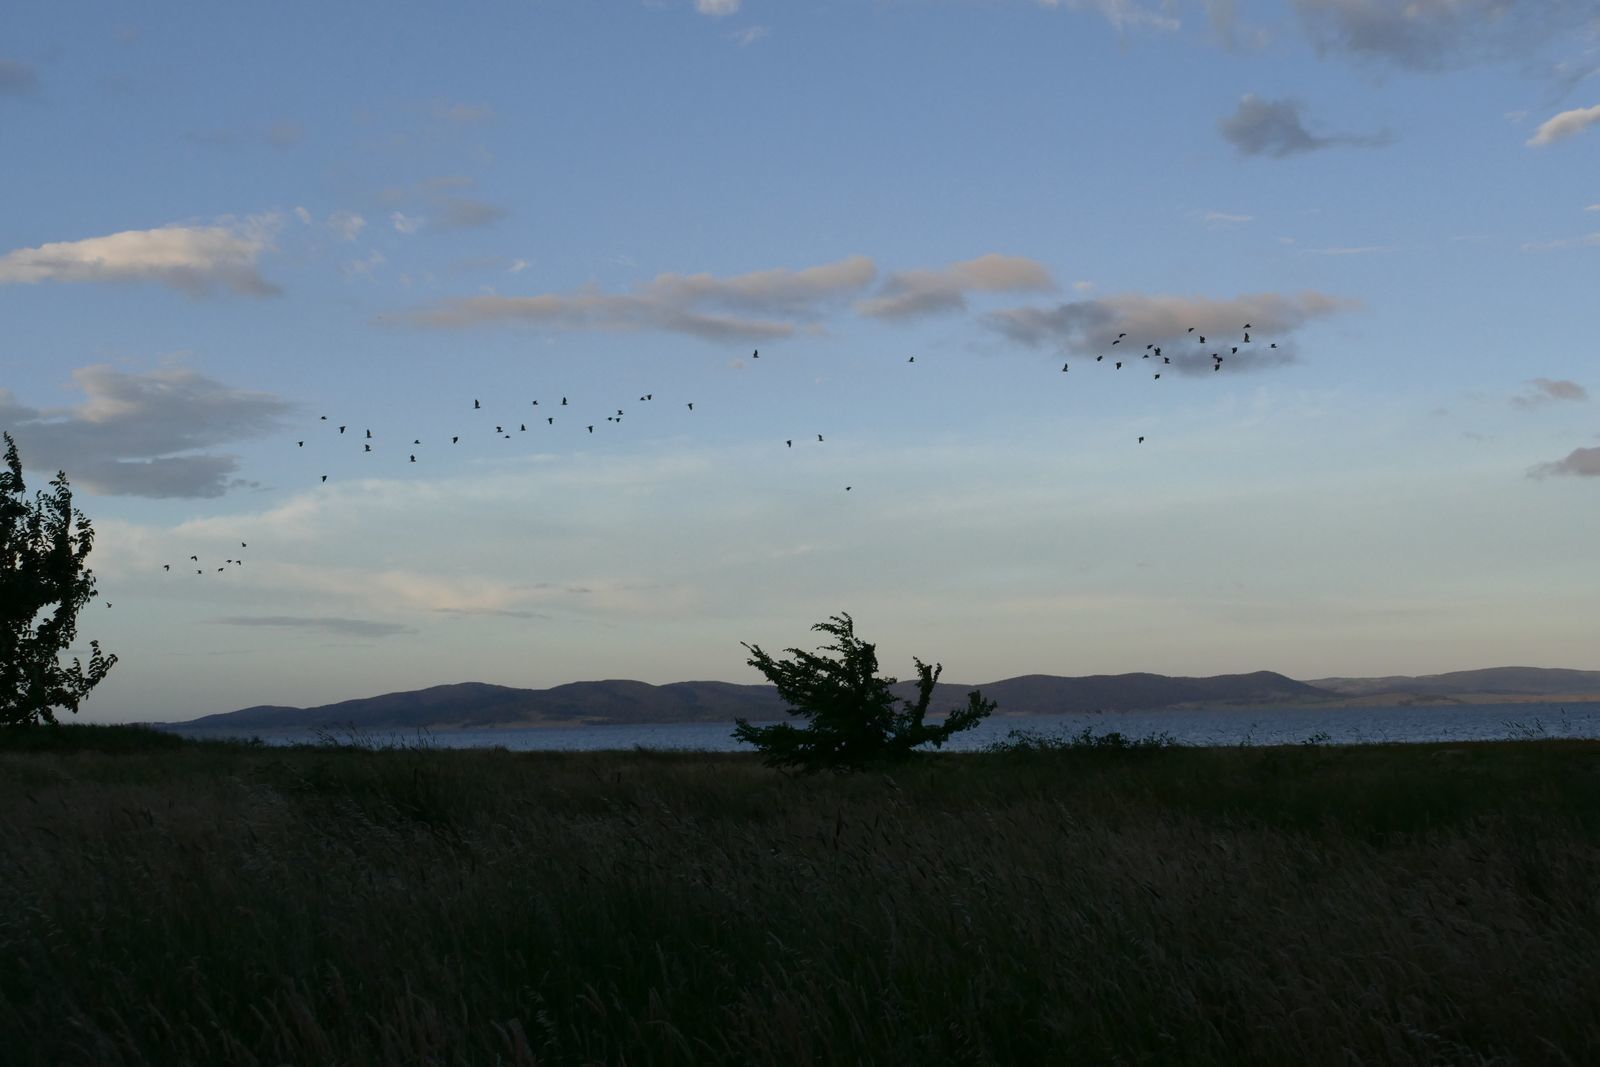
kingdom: Animalia
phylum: Chordata
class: Aves
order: Pelecaniformes
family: Ardeidae
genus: Egretta
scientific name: Egretta novaehollandiae
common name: White-faced heron
